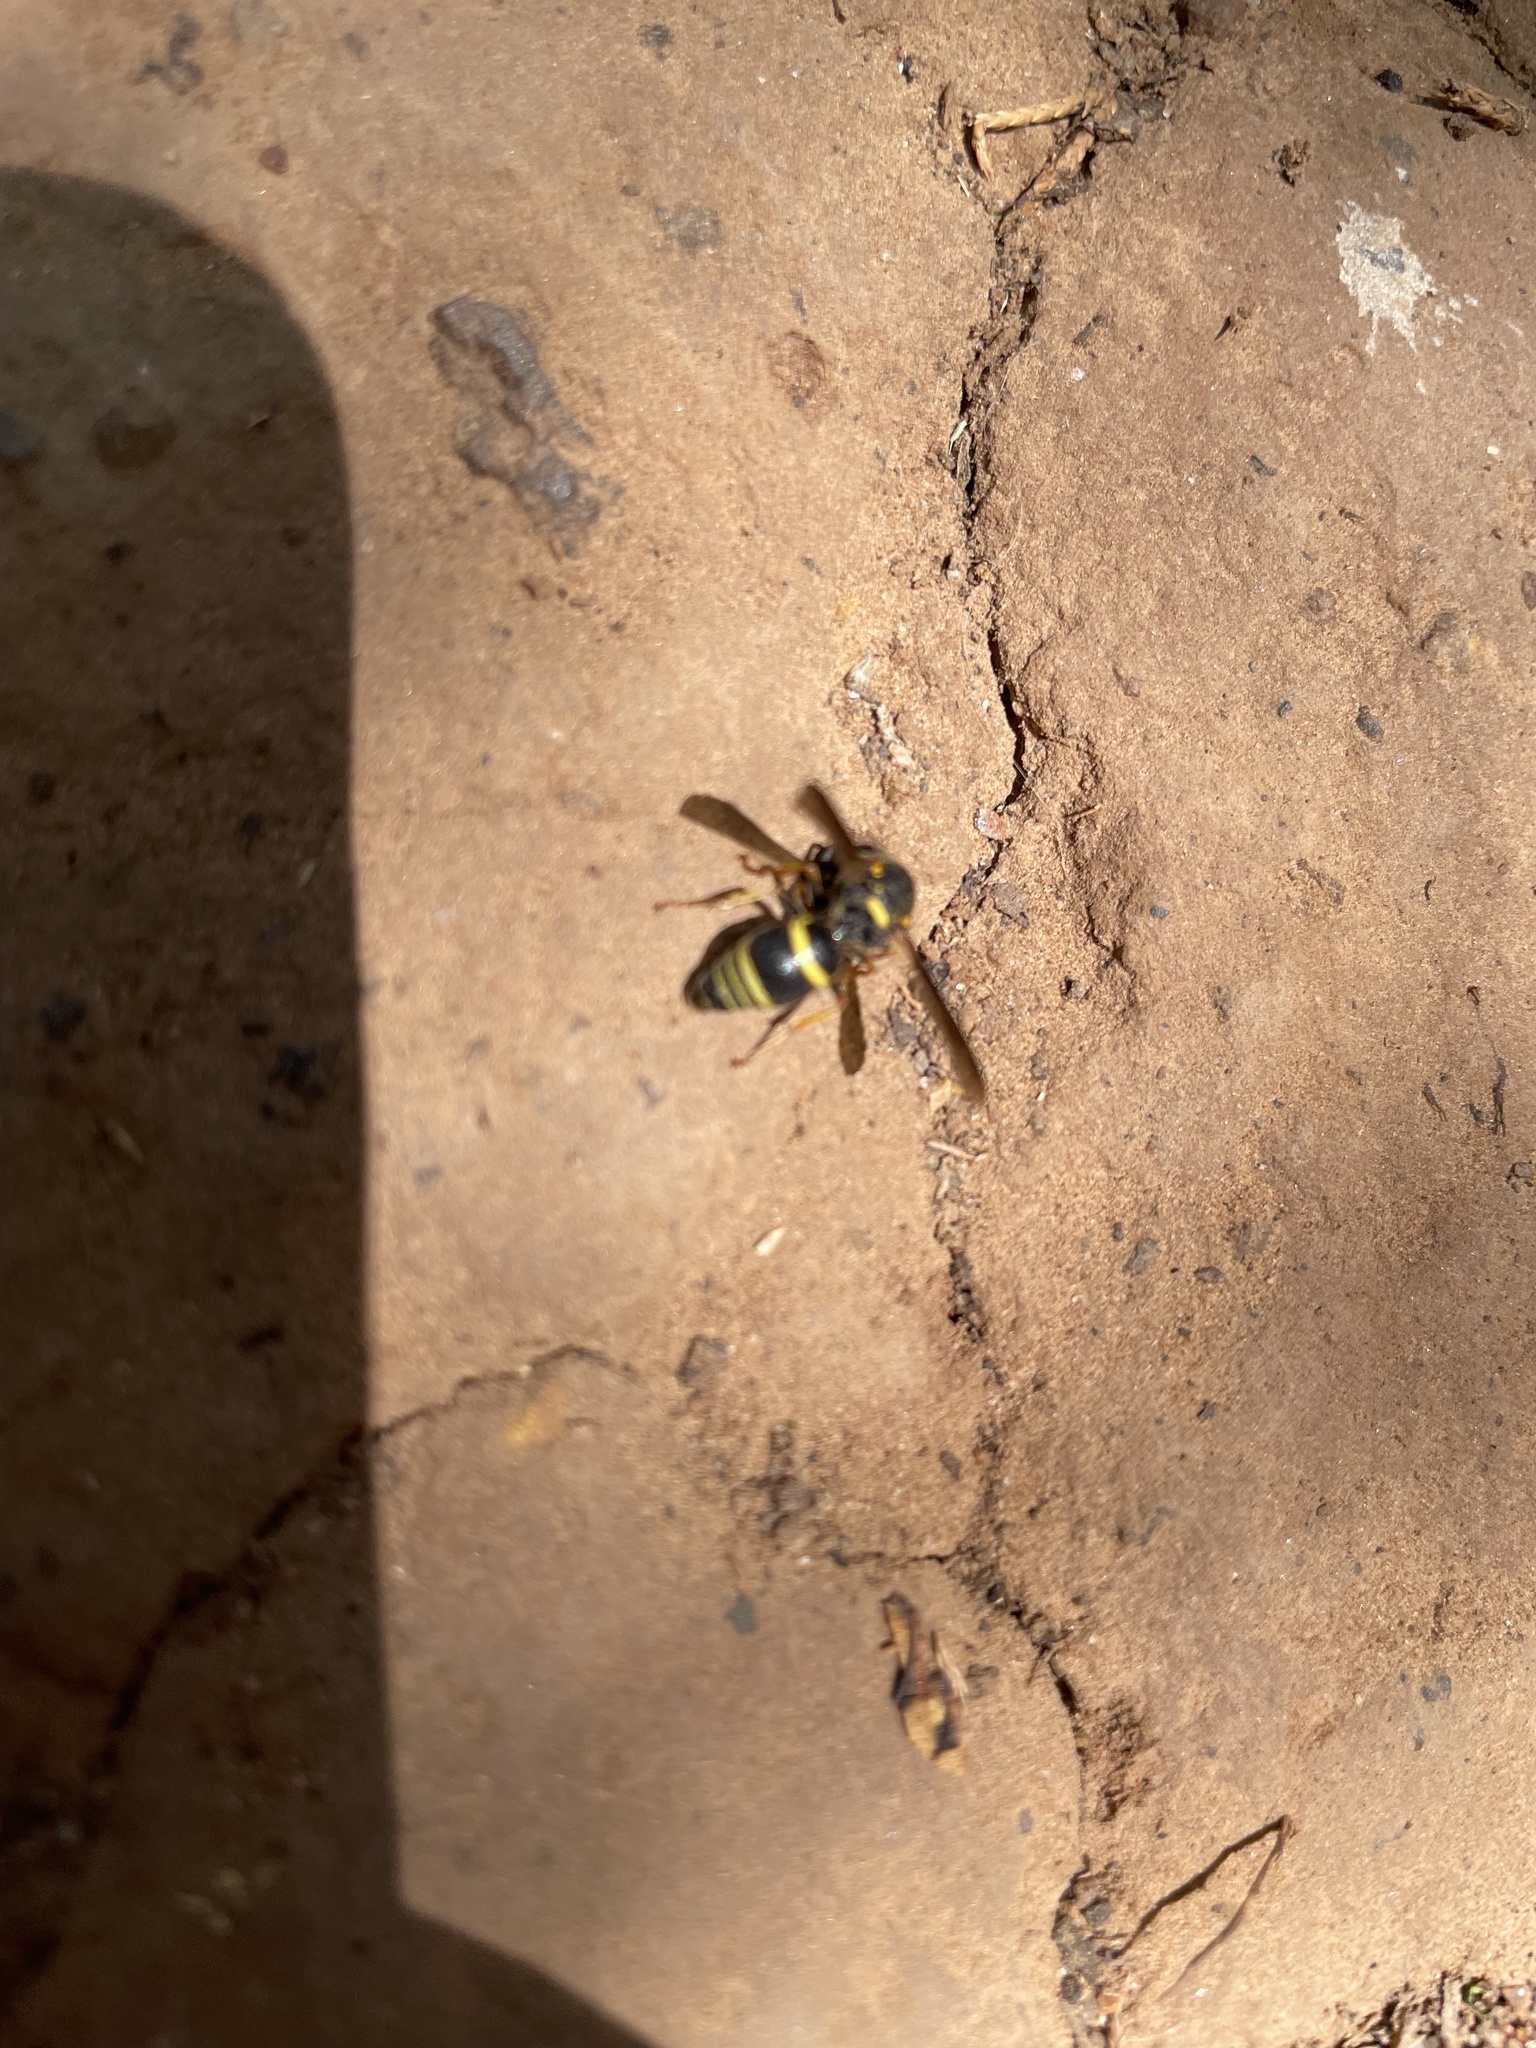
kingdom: Animalia
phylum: Arthropoda
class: Insecta
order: Hymenoptera
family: Eumenidae
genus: Euodynerus
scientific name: Euodynerus foraminatus
